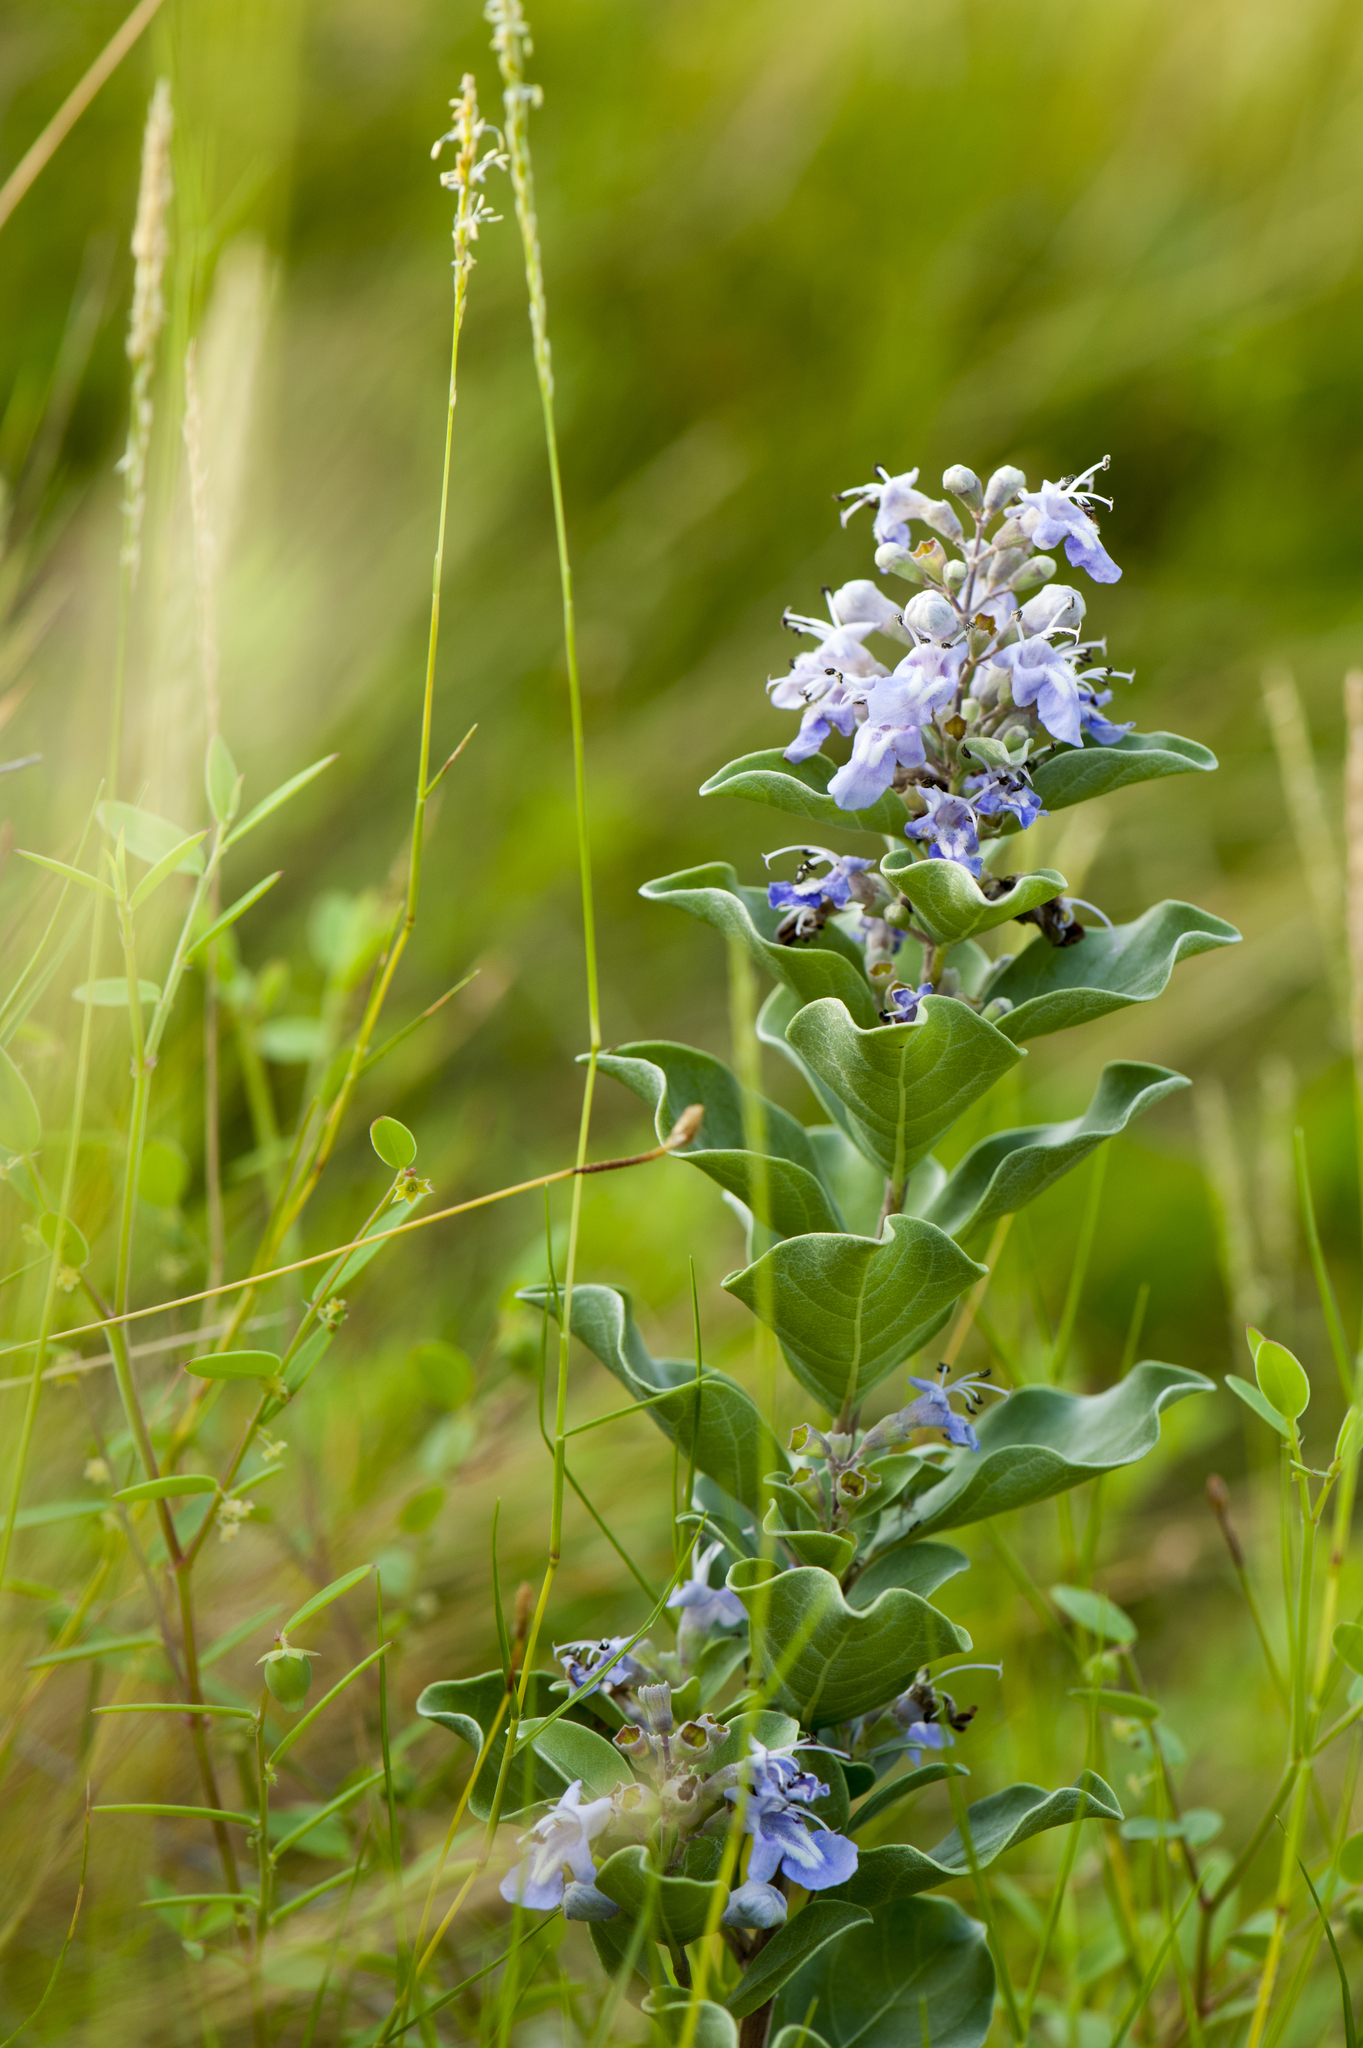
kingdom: Plantae
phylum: Tracheophyta
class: Magnoliopsida
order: Lamiales
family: Lamiaceae
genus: Vitex
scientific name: Vitex rotundifolia
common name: Beach vitex
